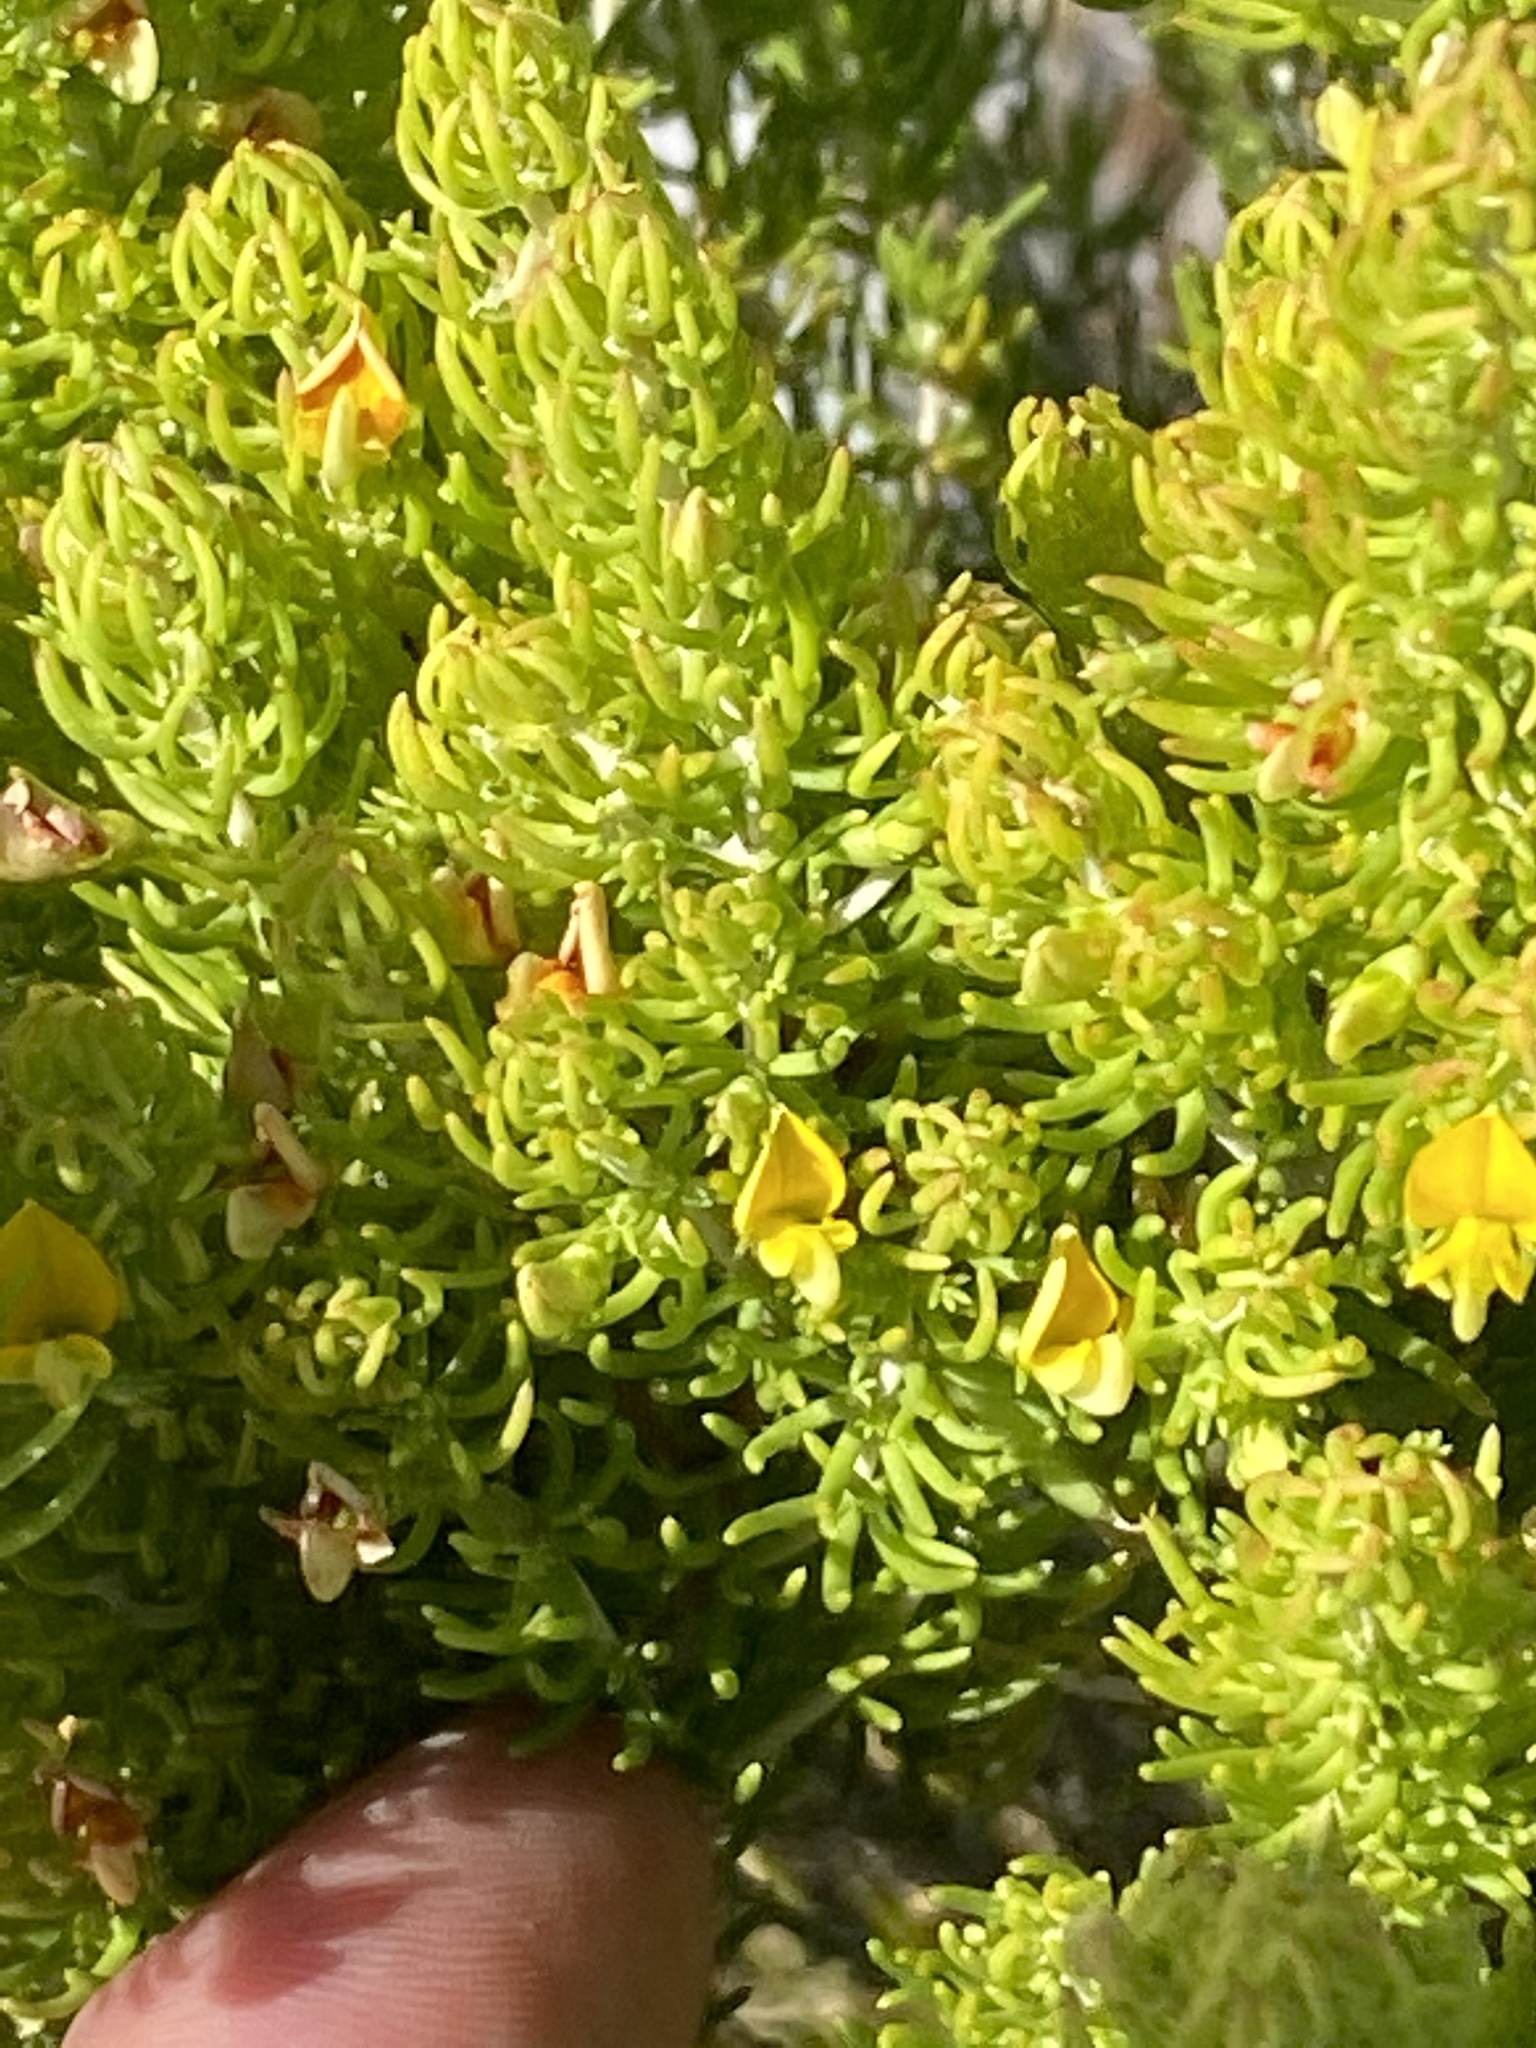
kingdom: Plantae
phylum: Tracheophyta
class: Magnoliopsida
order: Fabales
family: Fabaceae
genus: Aspalathus
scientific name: Aspalathus sanguinea
